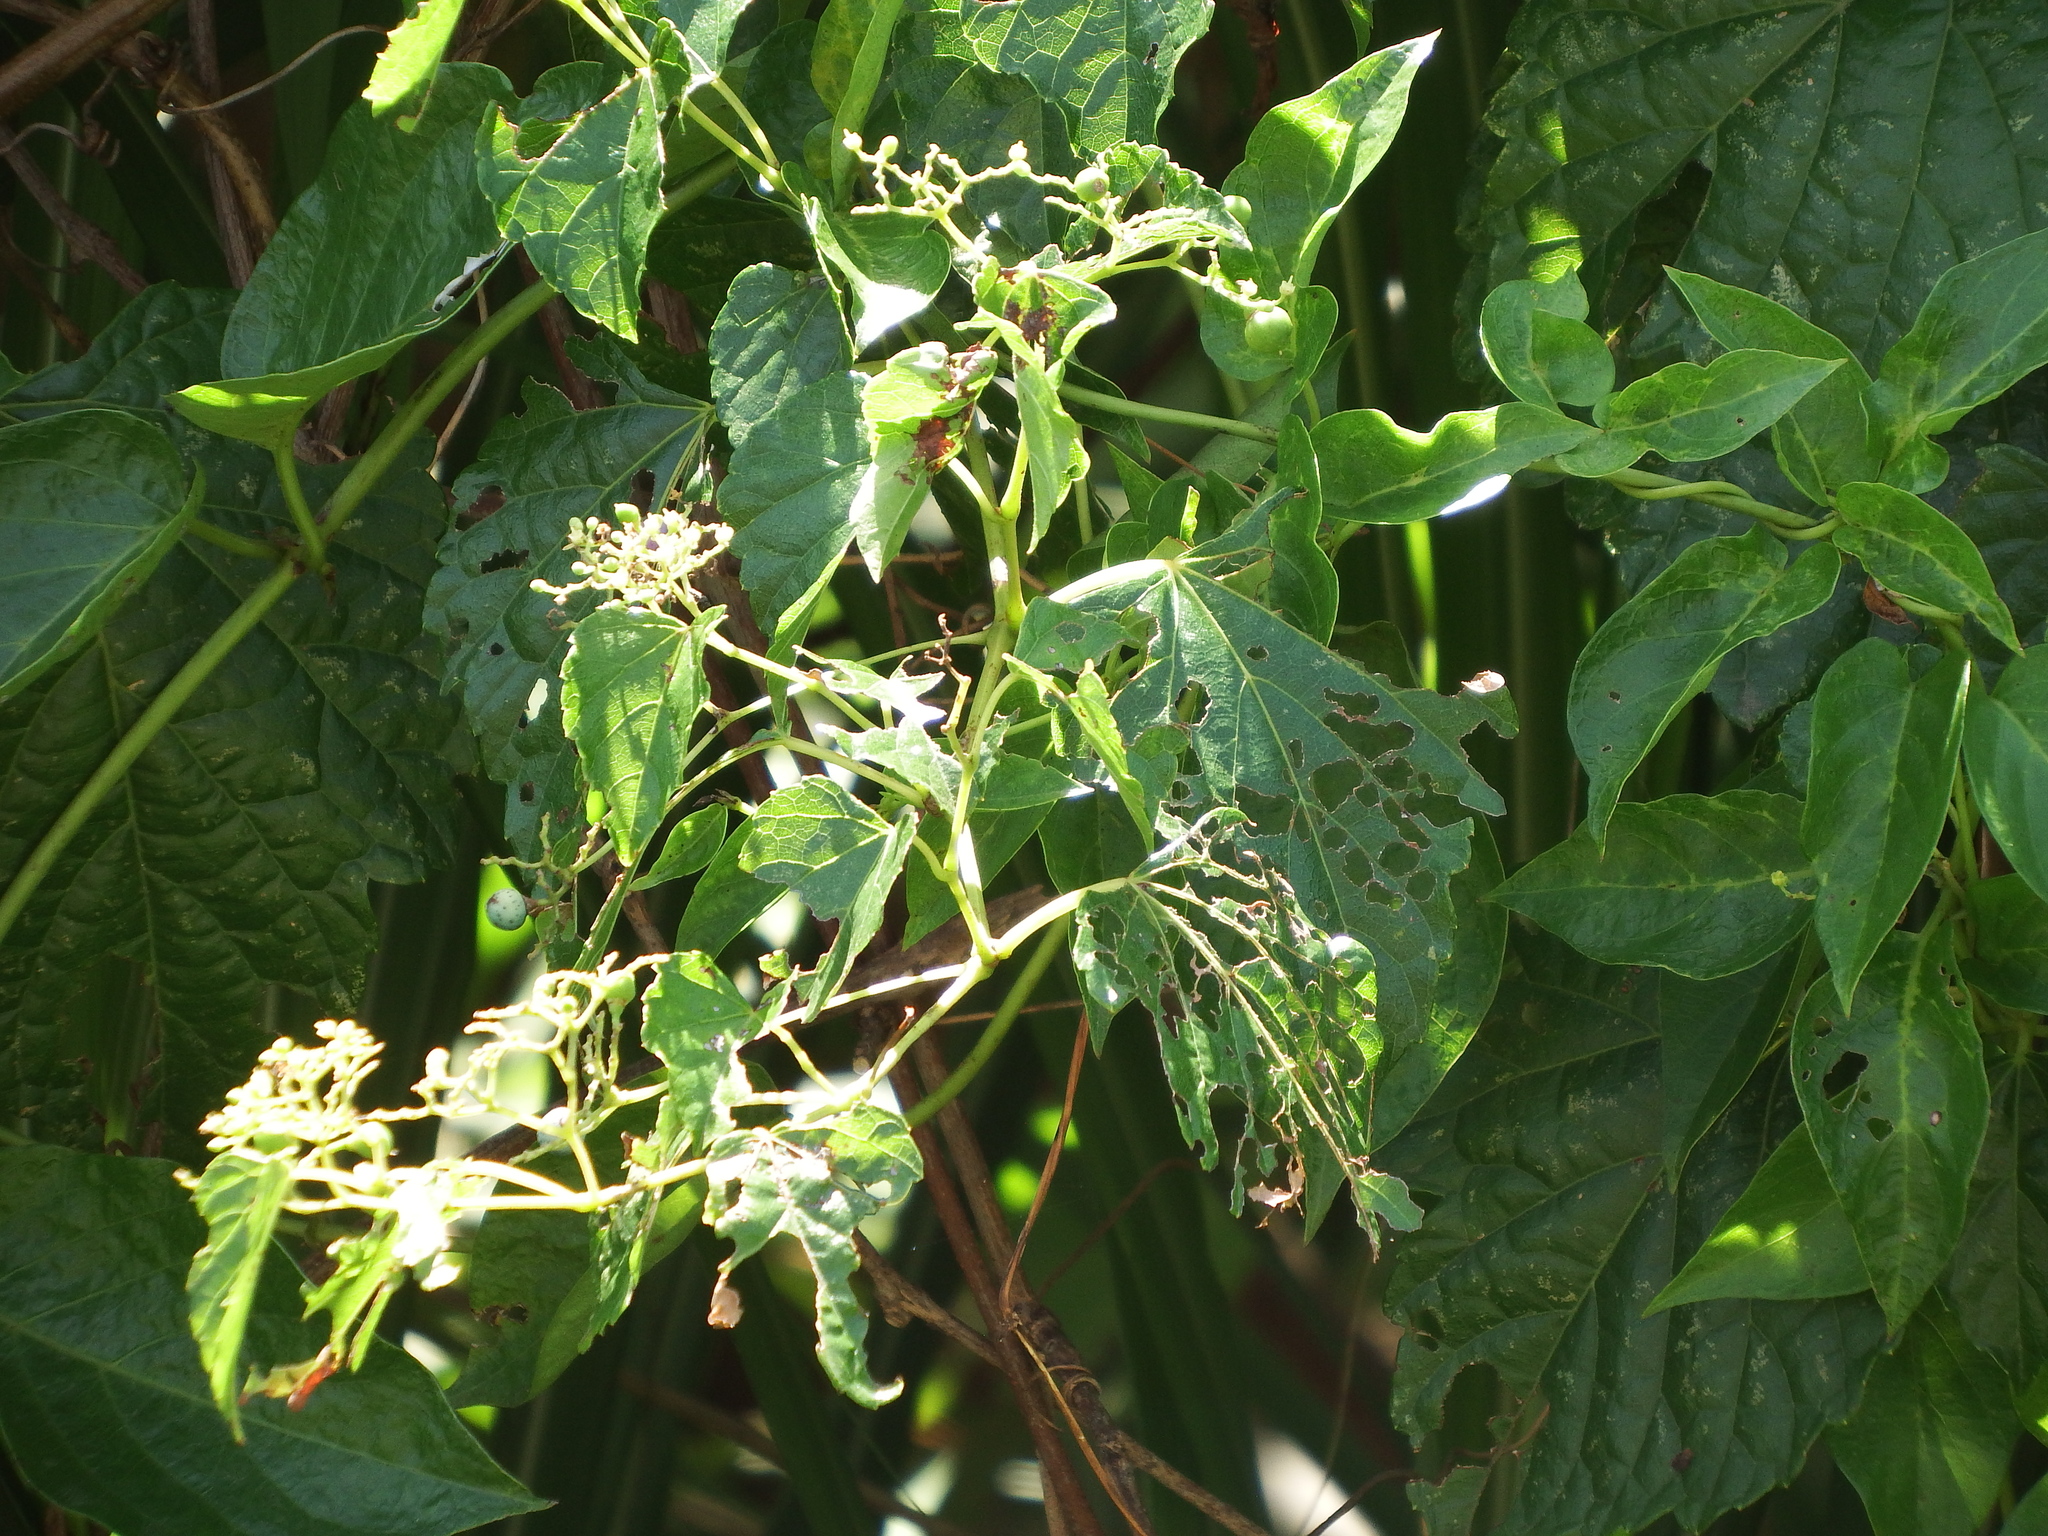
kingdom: Plantae
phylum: Tracheophyta
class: Magnoliopsida
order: Vitales
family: Vitaceae
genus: Ampelopsis
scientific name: Ampelopsis glandulosa
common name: Amur peppervine
